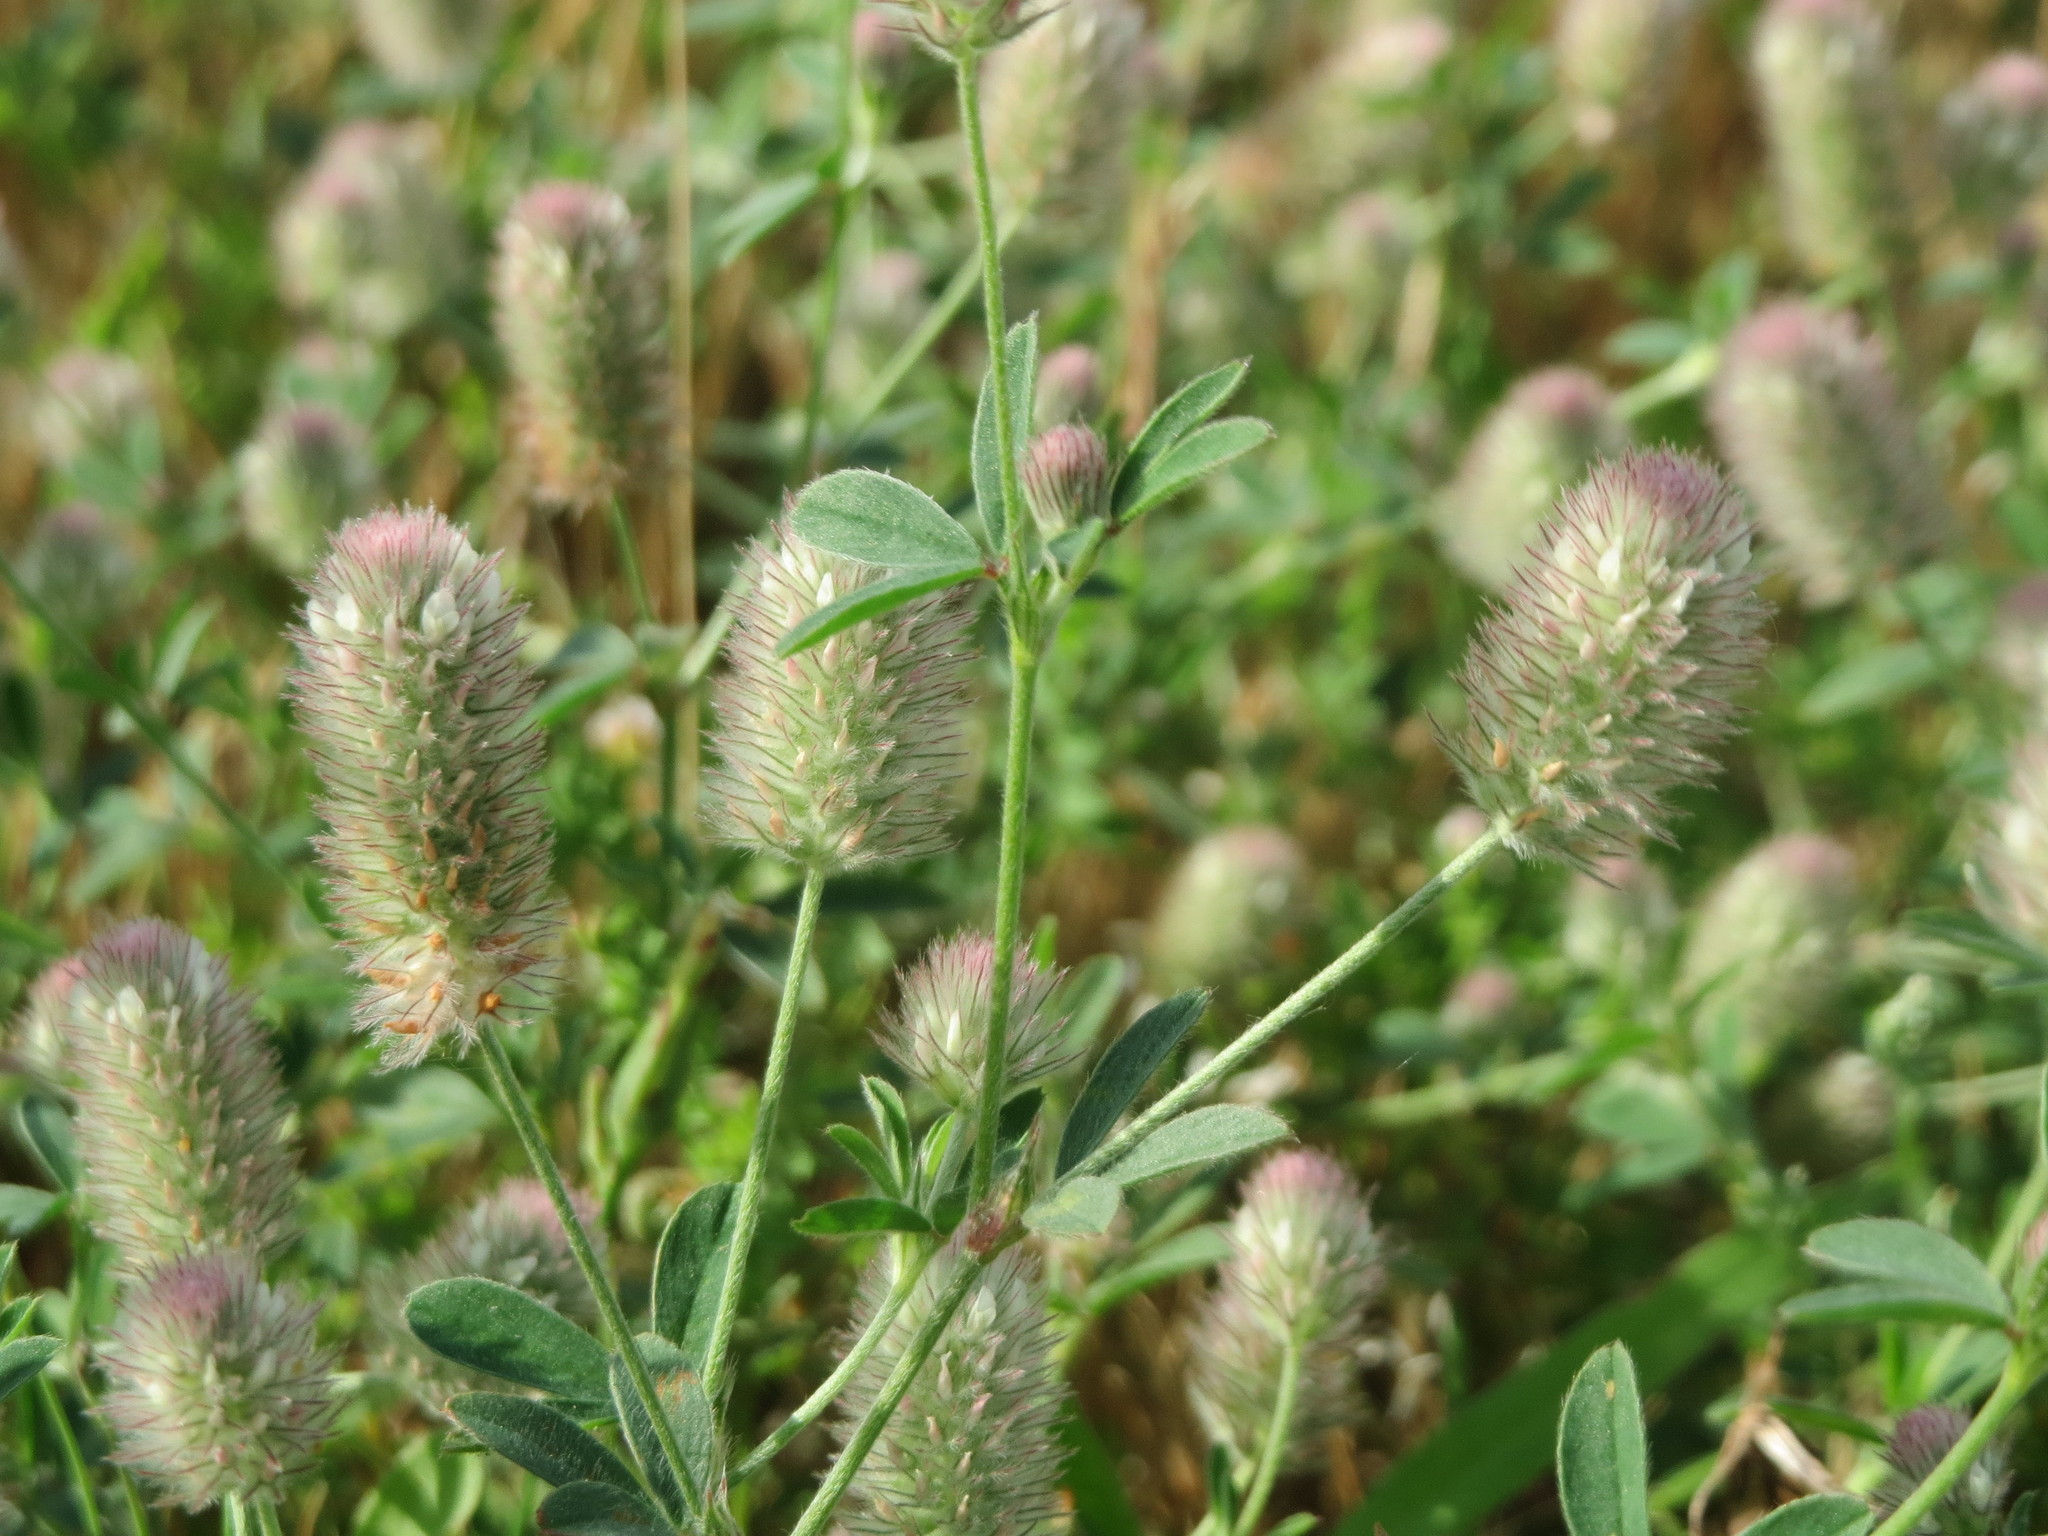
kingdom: Plantae
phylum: Tracheophyta
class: Magnoliopsida
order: Fabales
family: Fabaceae
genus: Trifolium
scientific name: Trifolium arvense
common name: Hare's-foot clover
